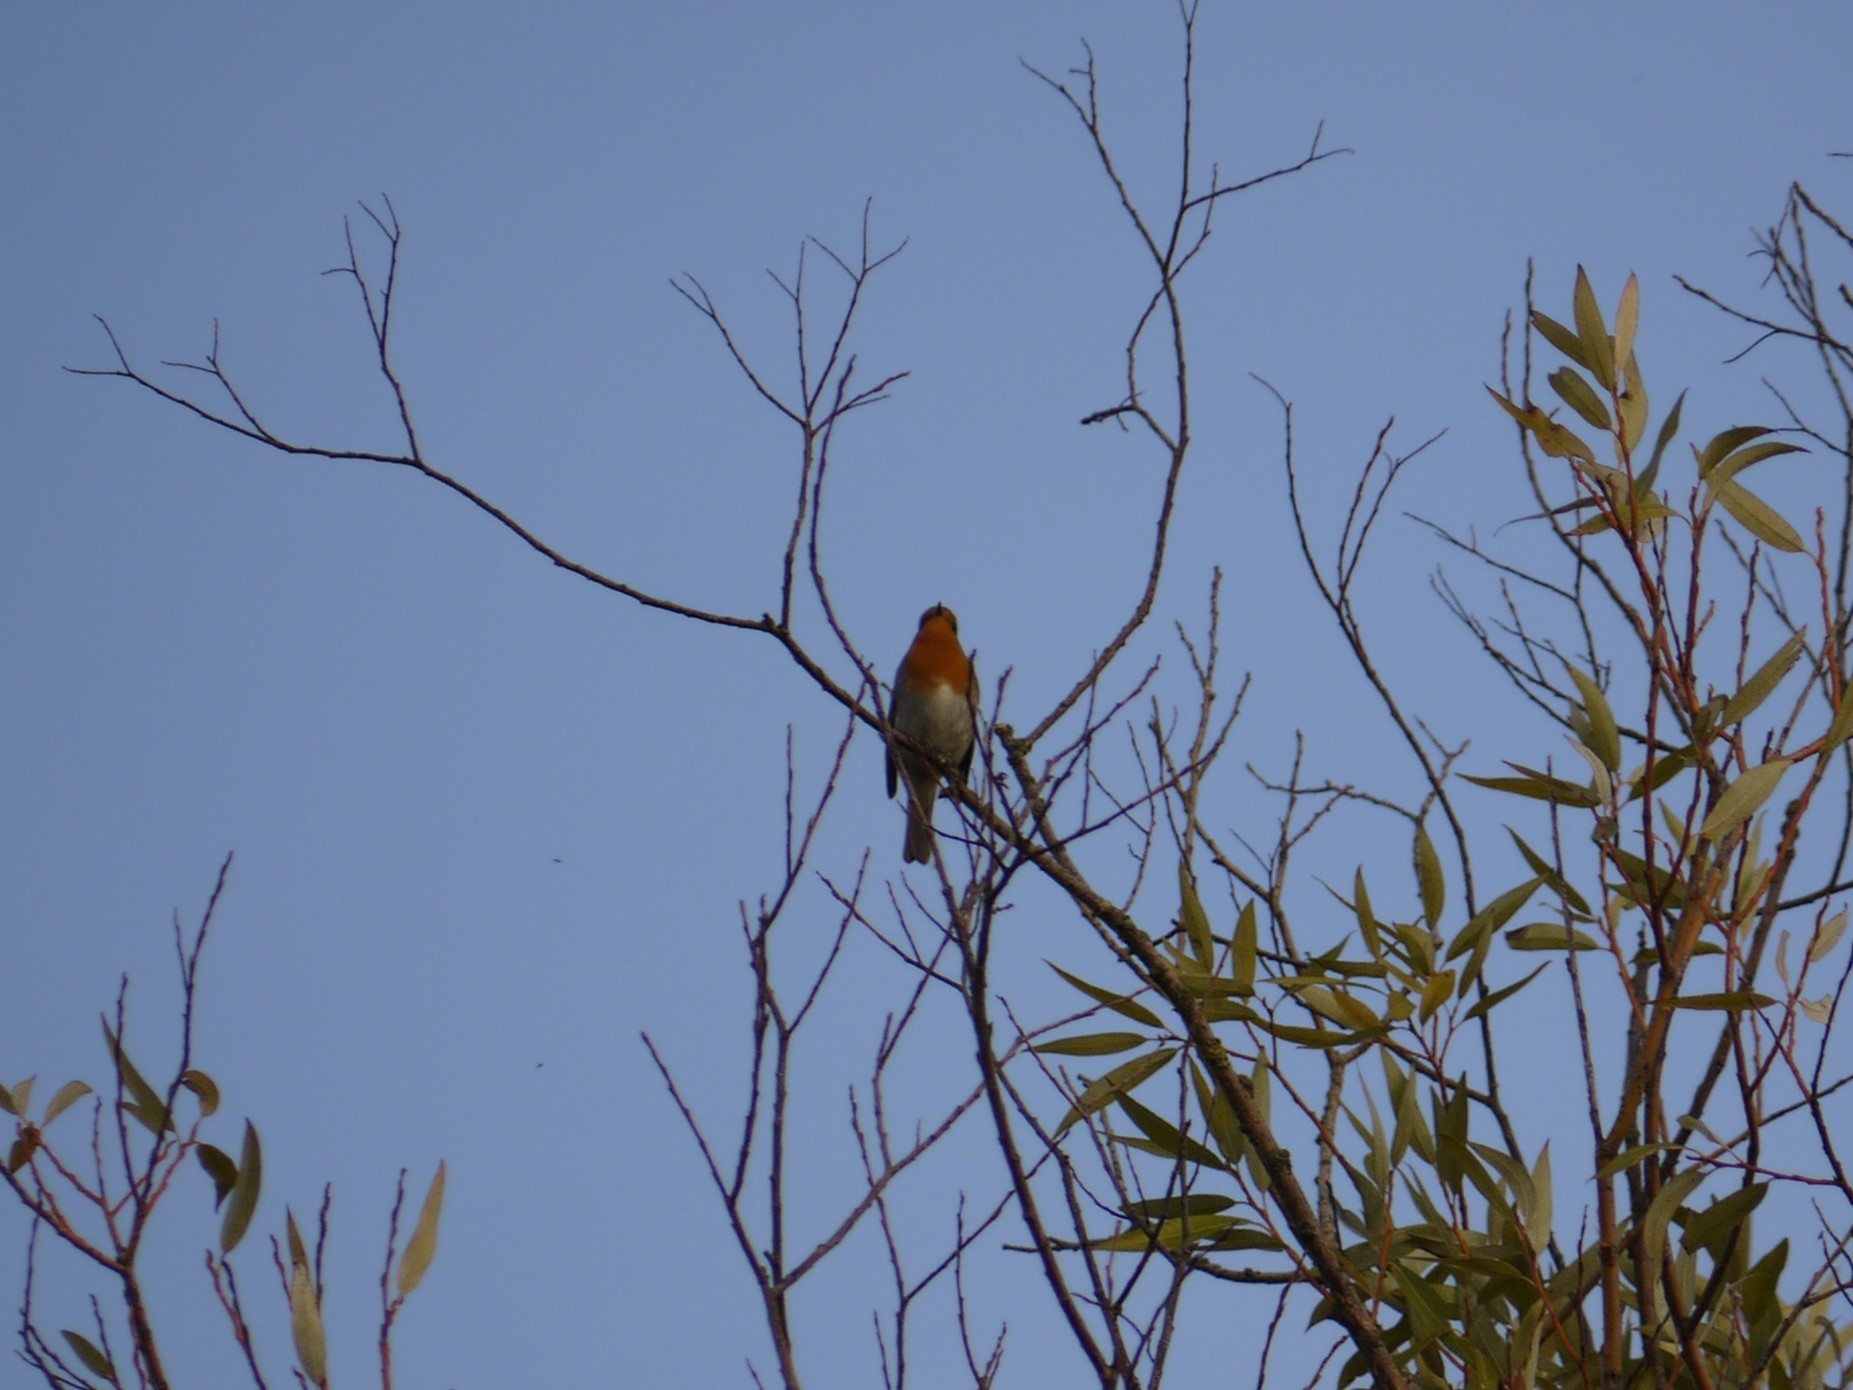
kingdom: Animalia
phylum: Chordata
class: Aves
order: Passeriformes
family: Muscicapidae
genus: Erithacus
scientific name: Erithacus rubecula
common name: European robin
